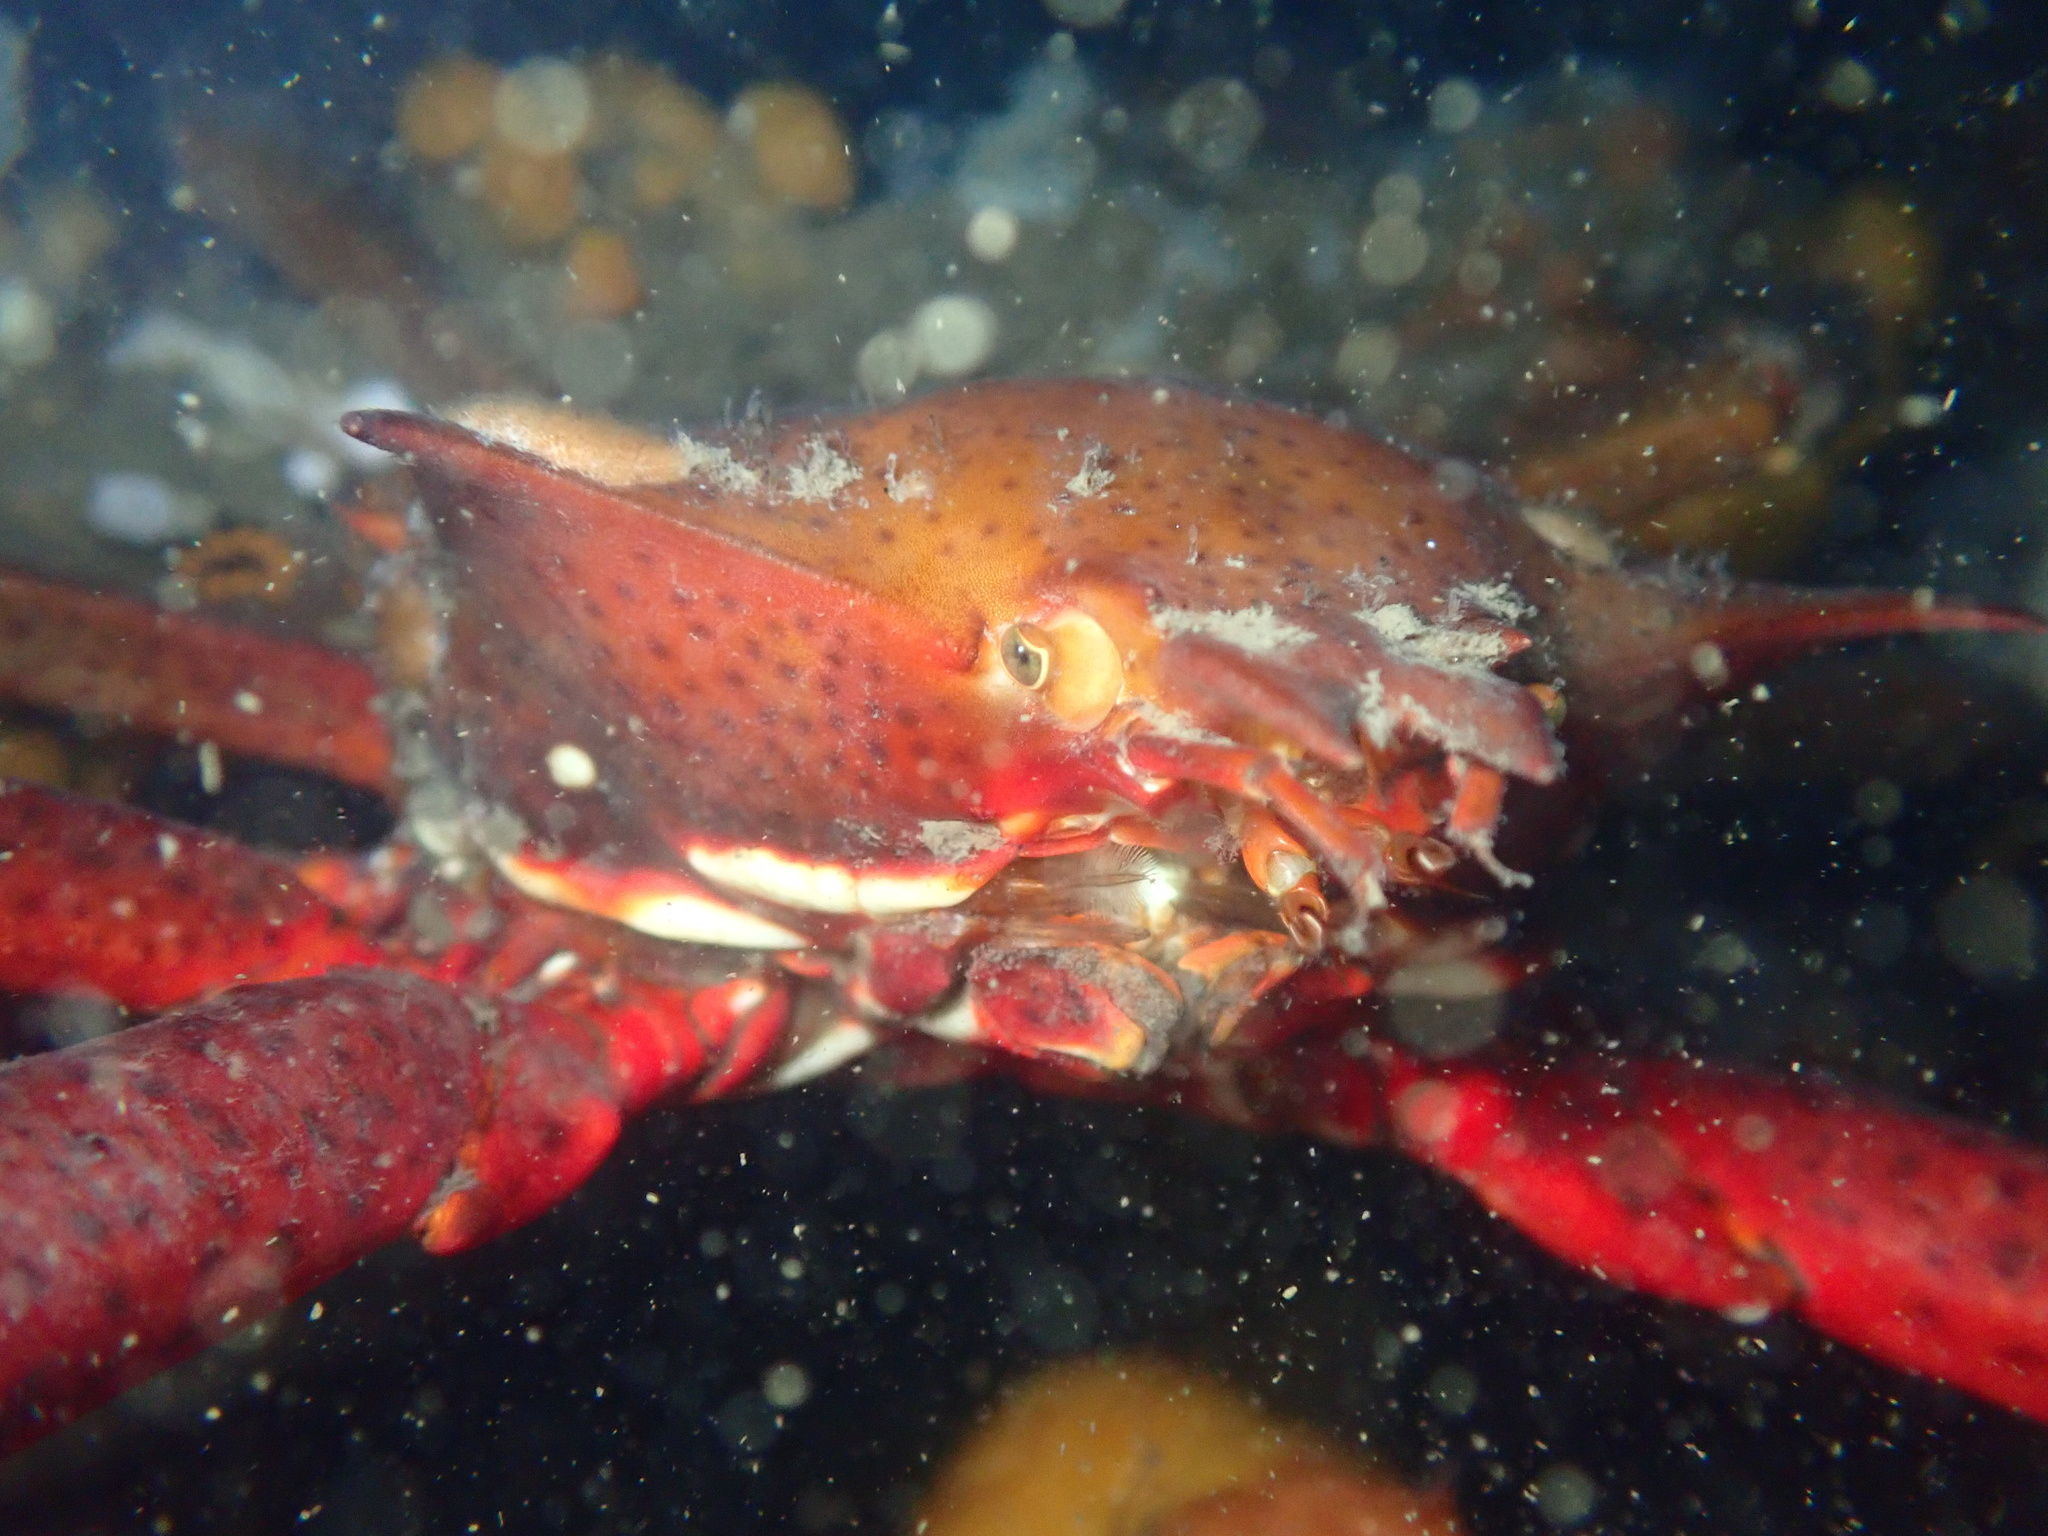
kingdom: Animalia
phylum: Arthropoda
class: Malacostraca
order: Decapoda
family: Epialtidae
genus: Pugettia
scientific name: Pugettia producta
